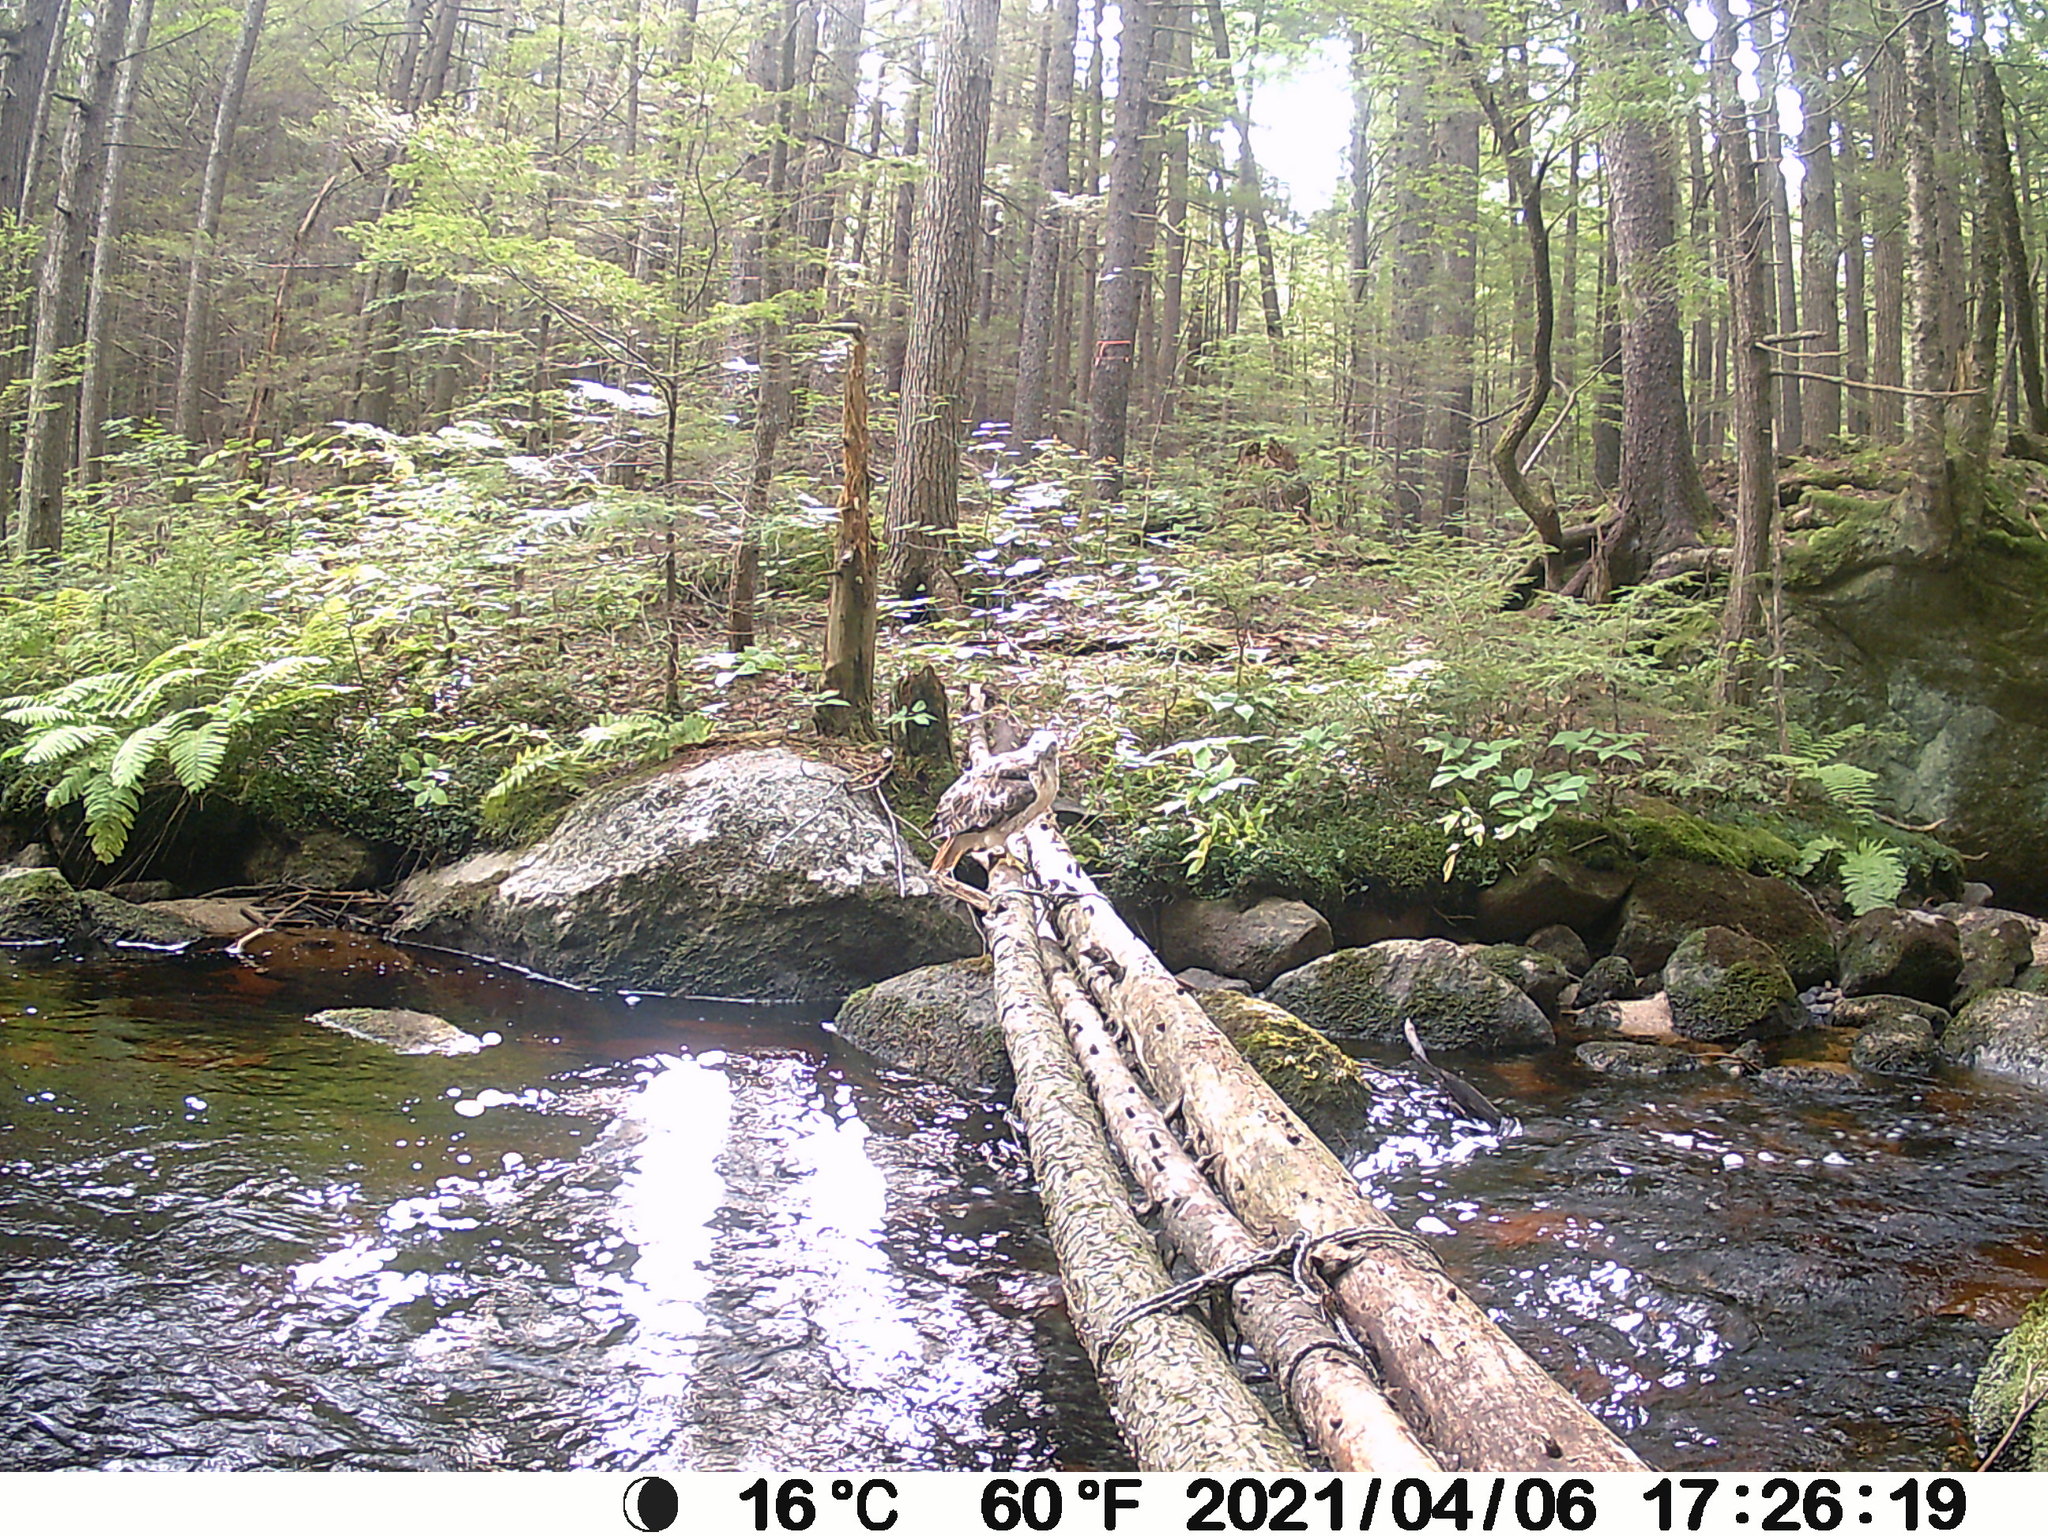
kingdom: Animalia
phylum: Chordata
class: Aves
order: Accipitriformes
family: Accipitridae
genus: Buteo
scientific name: Buteo jamaicensis
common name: Red-tailed hawk
